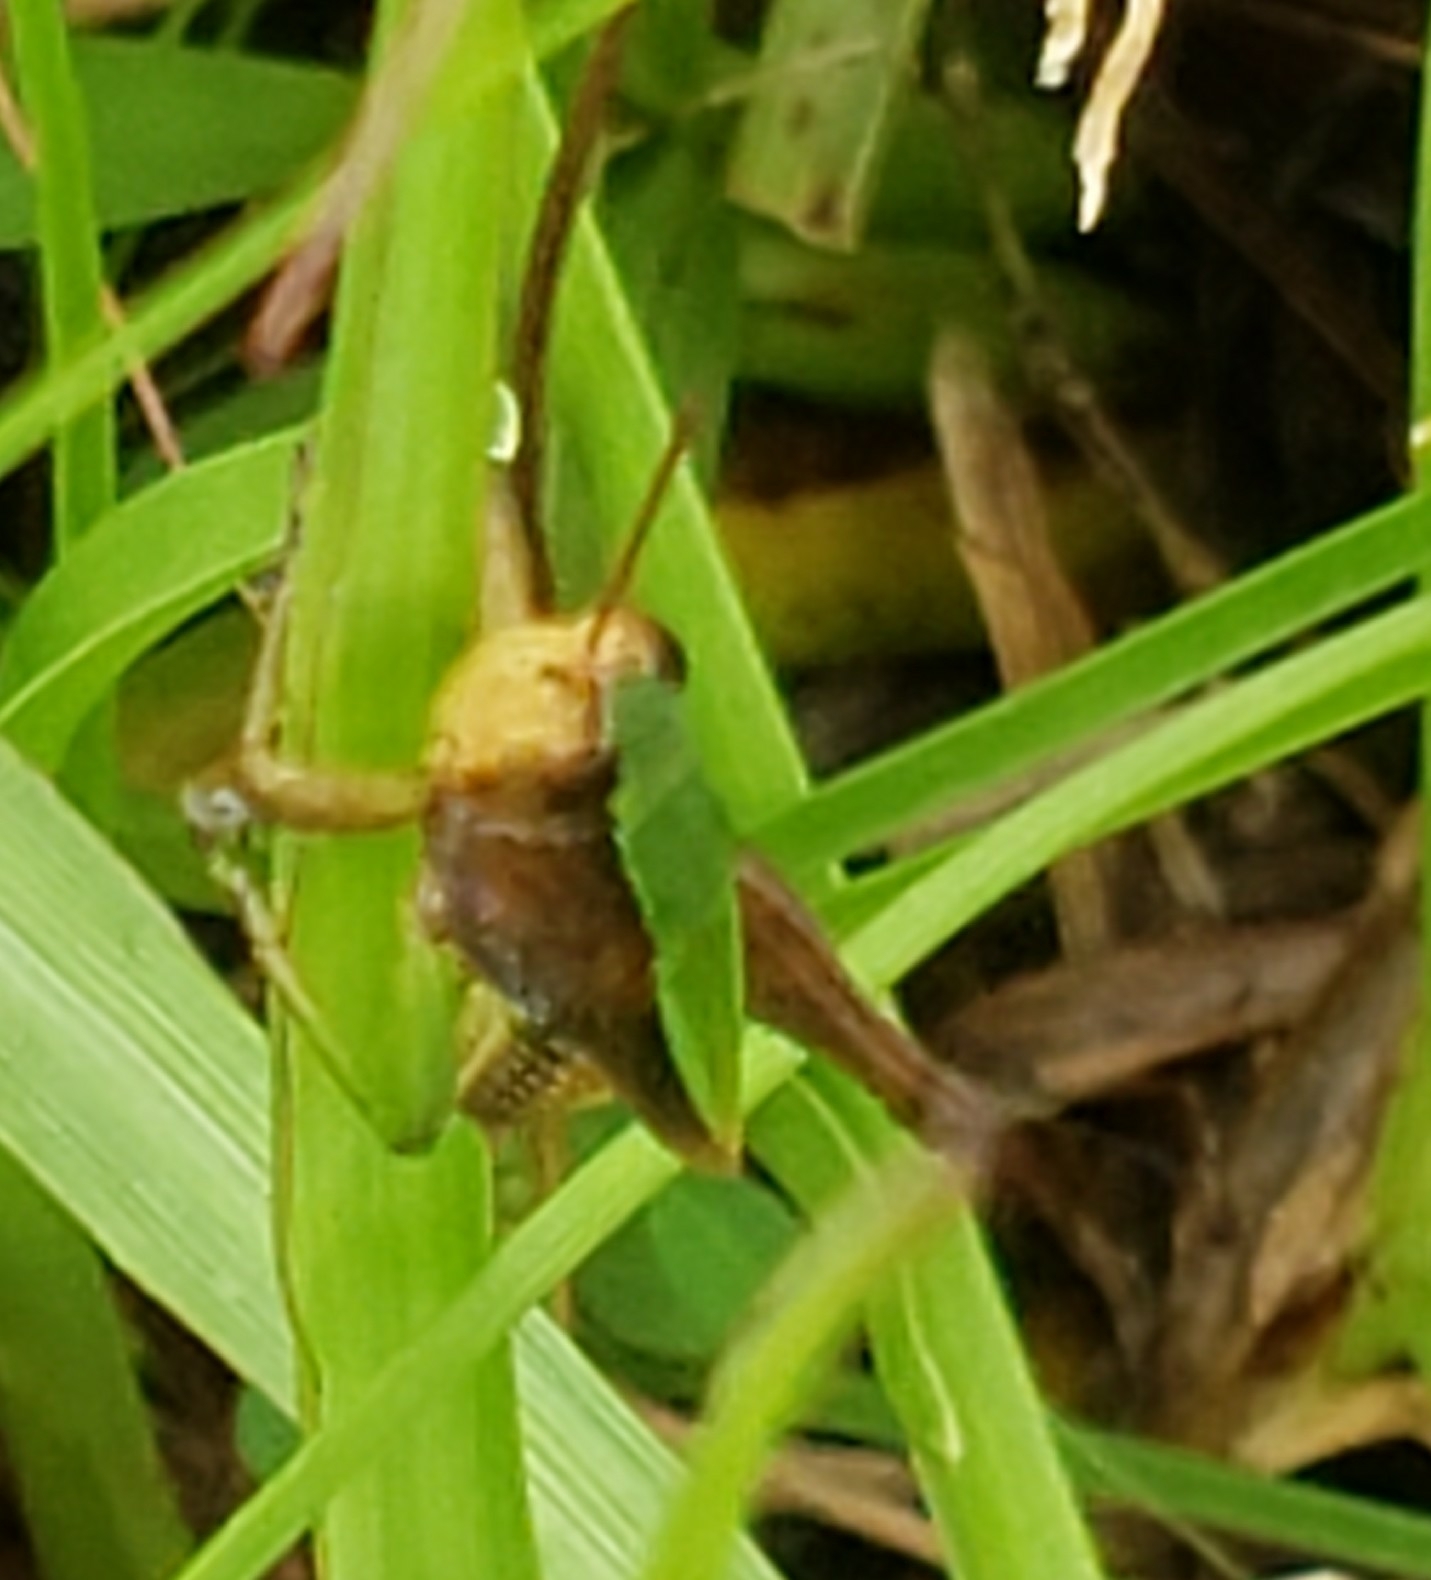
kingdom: Animalia
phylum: Arthropoda
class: Insecta
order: Orthoptera
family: Acrididae
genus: Dichromorpha
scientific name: Dichromorpha viridis
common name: Short-winged green grasshopper
